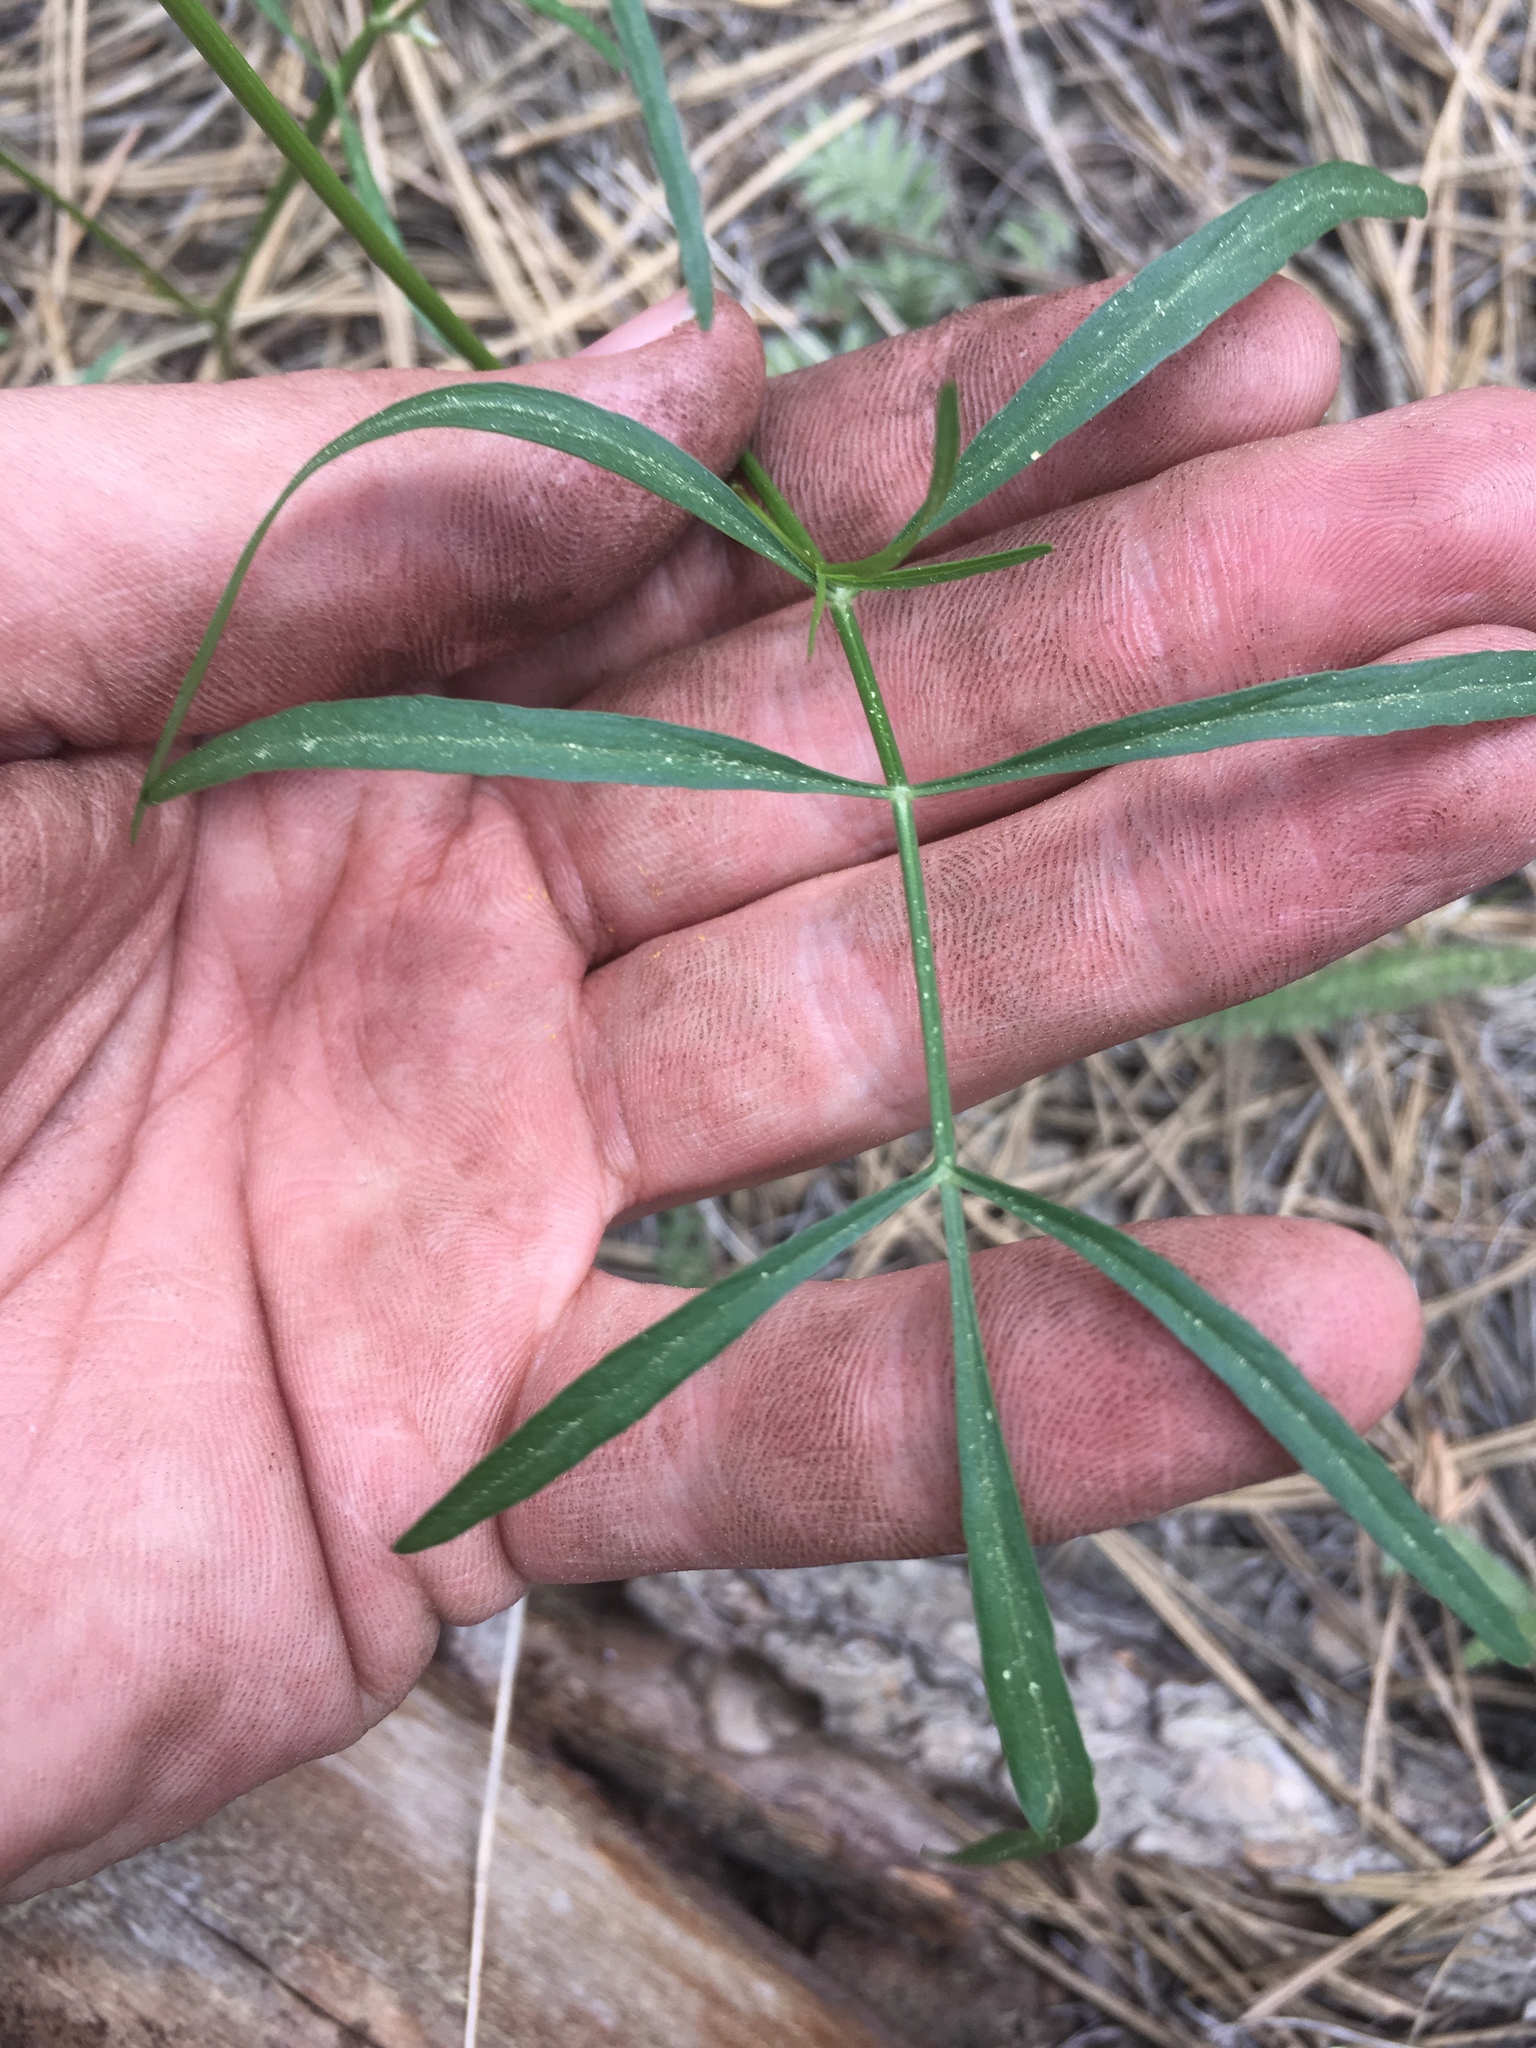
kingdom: Plantae
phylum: Tracheophyta
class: Magnoliopsida
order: Apiales
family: Apiaceae
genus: Cymopterus
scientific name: Cymopterus lemmonii
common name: Lemmon's spring-parsley
